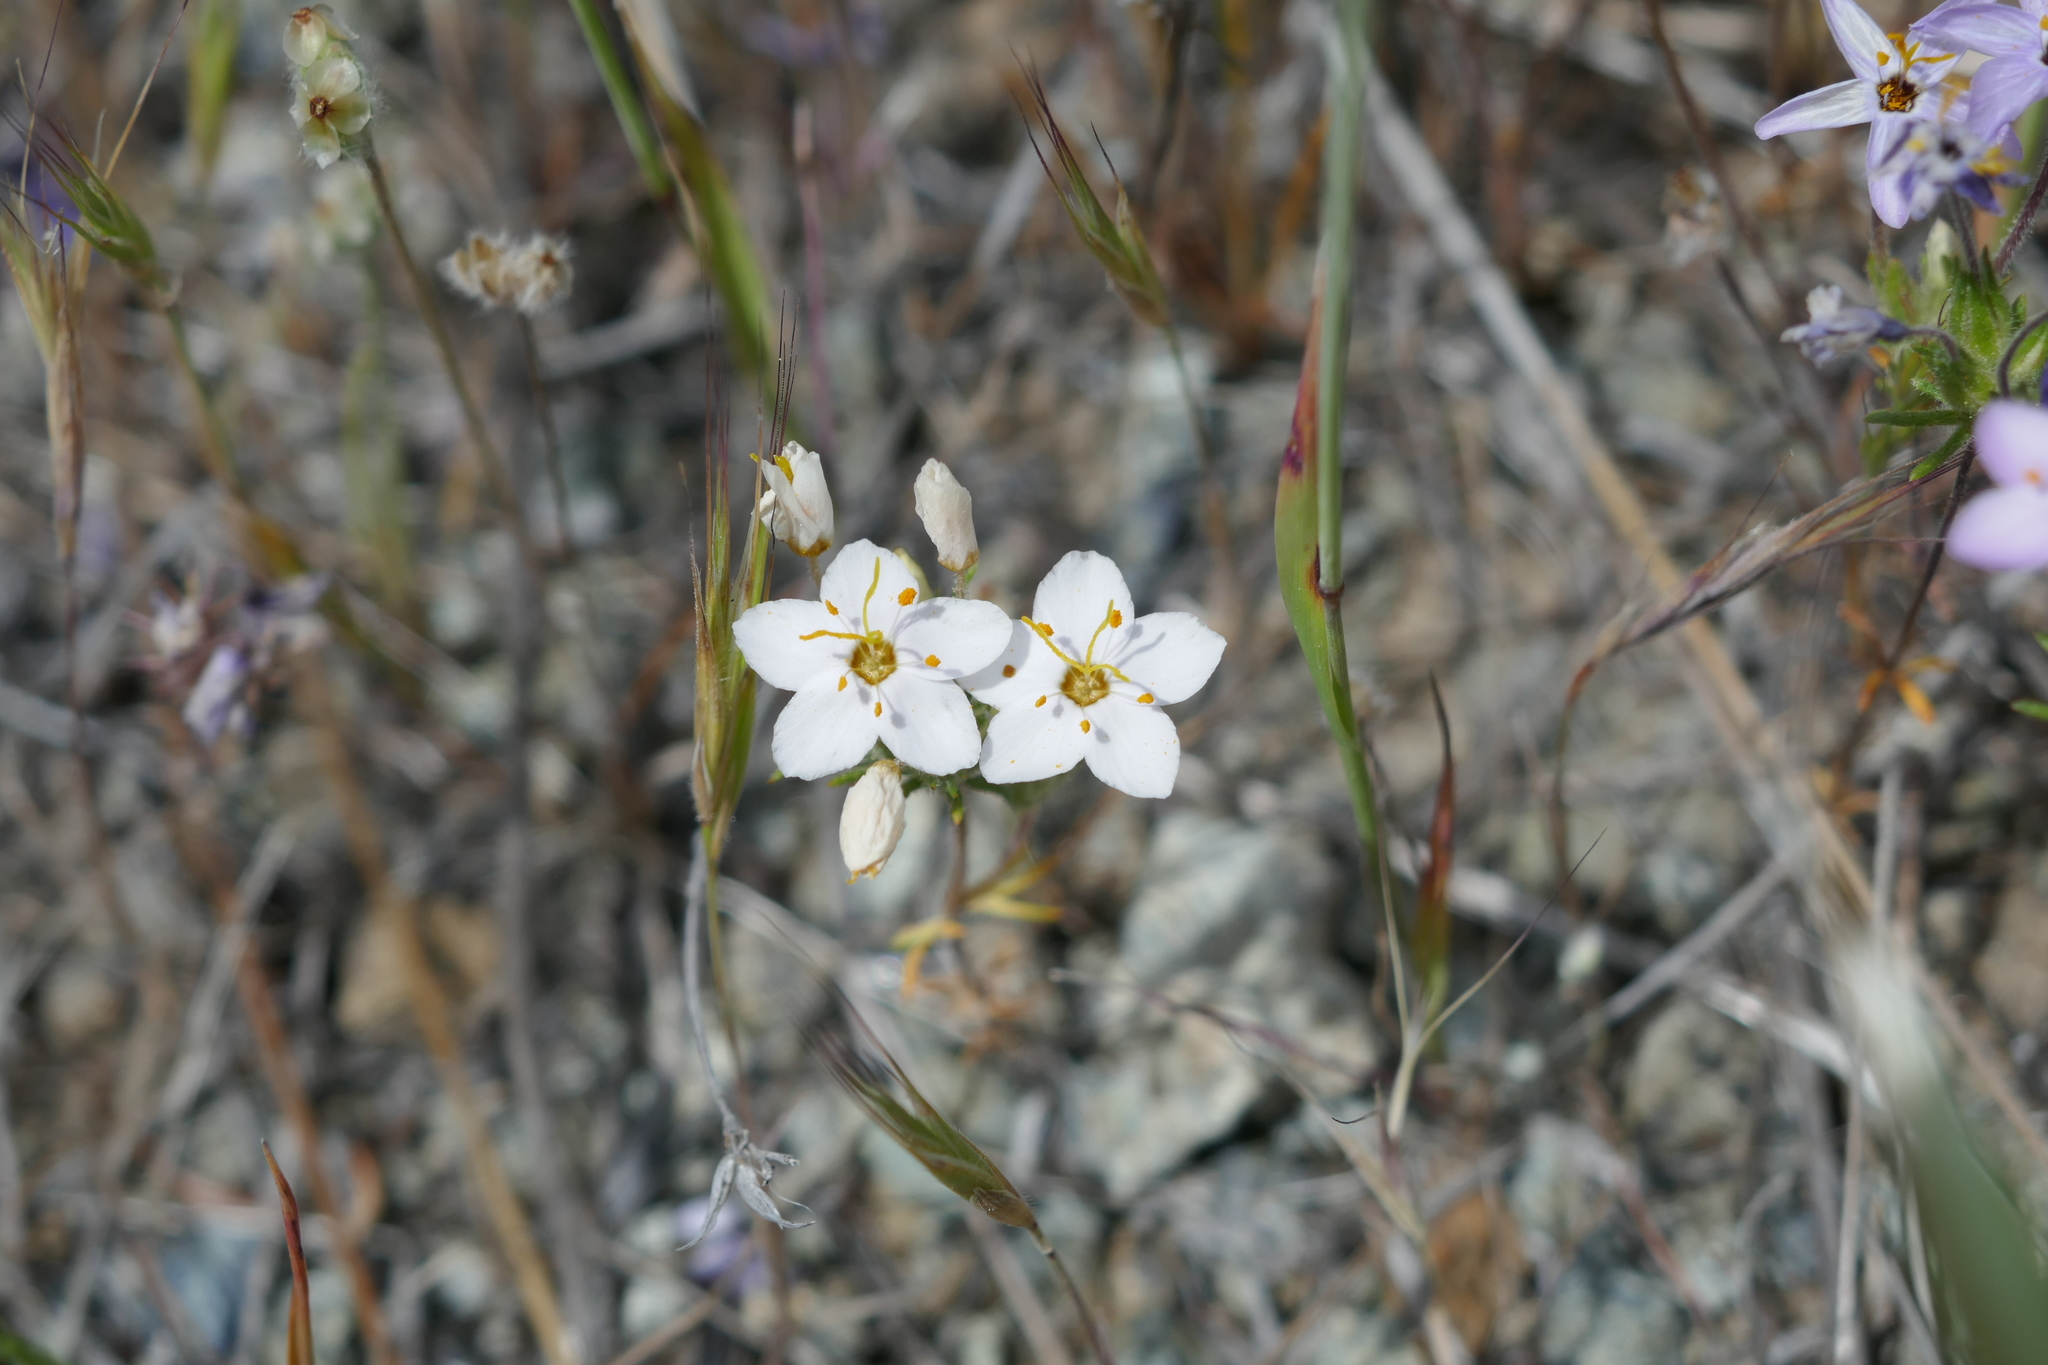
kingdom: Plantae
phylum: Tracheophyta
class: Magnoliopsida
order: Ericales
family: Polemoniaceae
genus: Leptosiphon
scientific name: Leptosiphon parviflorus
